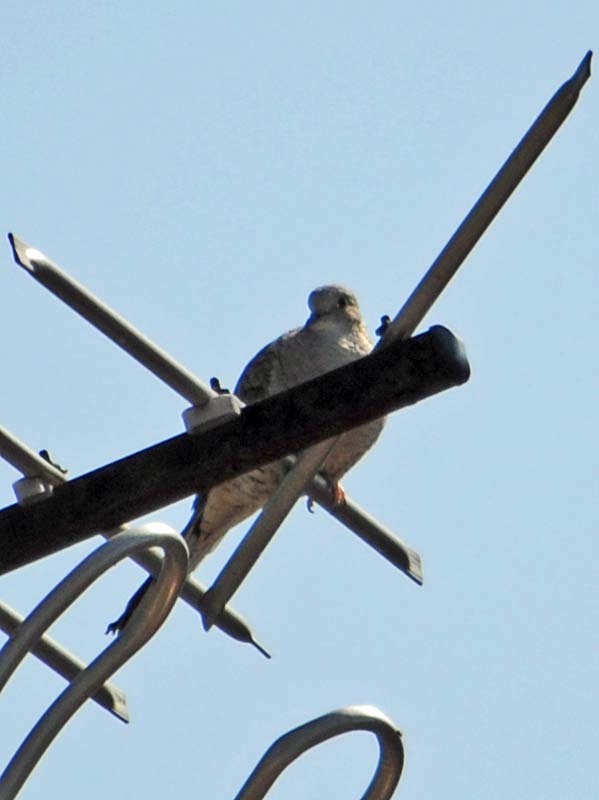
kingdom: Animalia
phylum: Chordata
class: Aves
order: Columbiformes
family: Columbidae
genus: Columbina
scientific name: Columbina inca
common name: Inca dove
